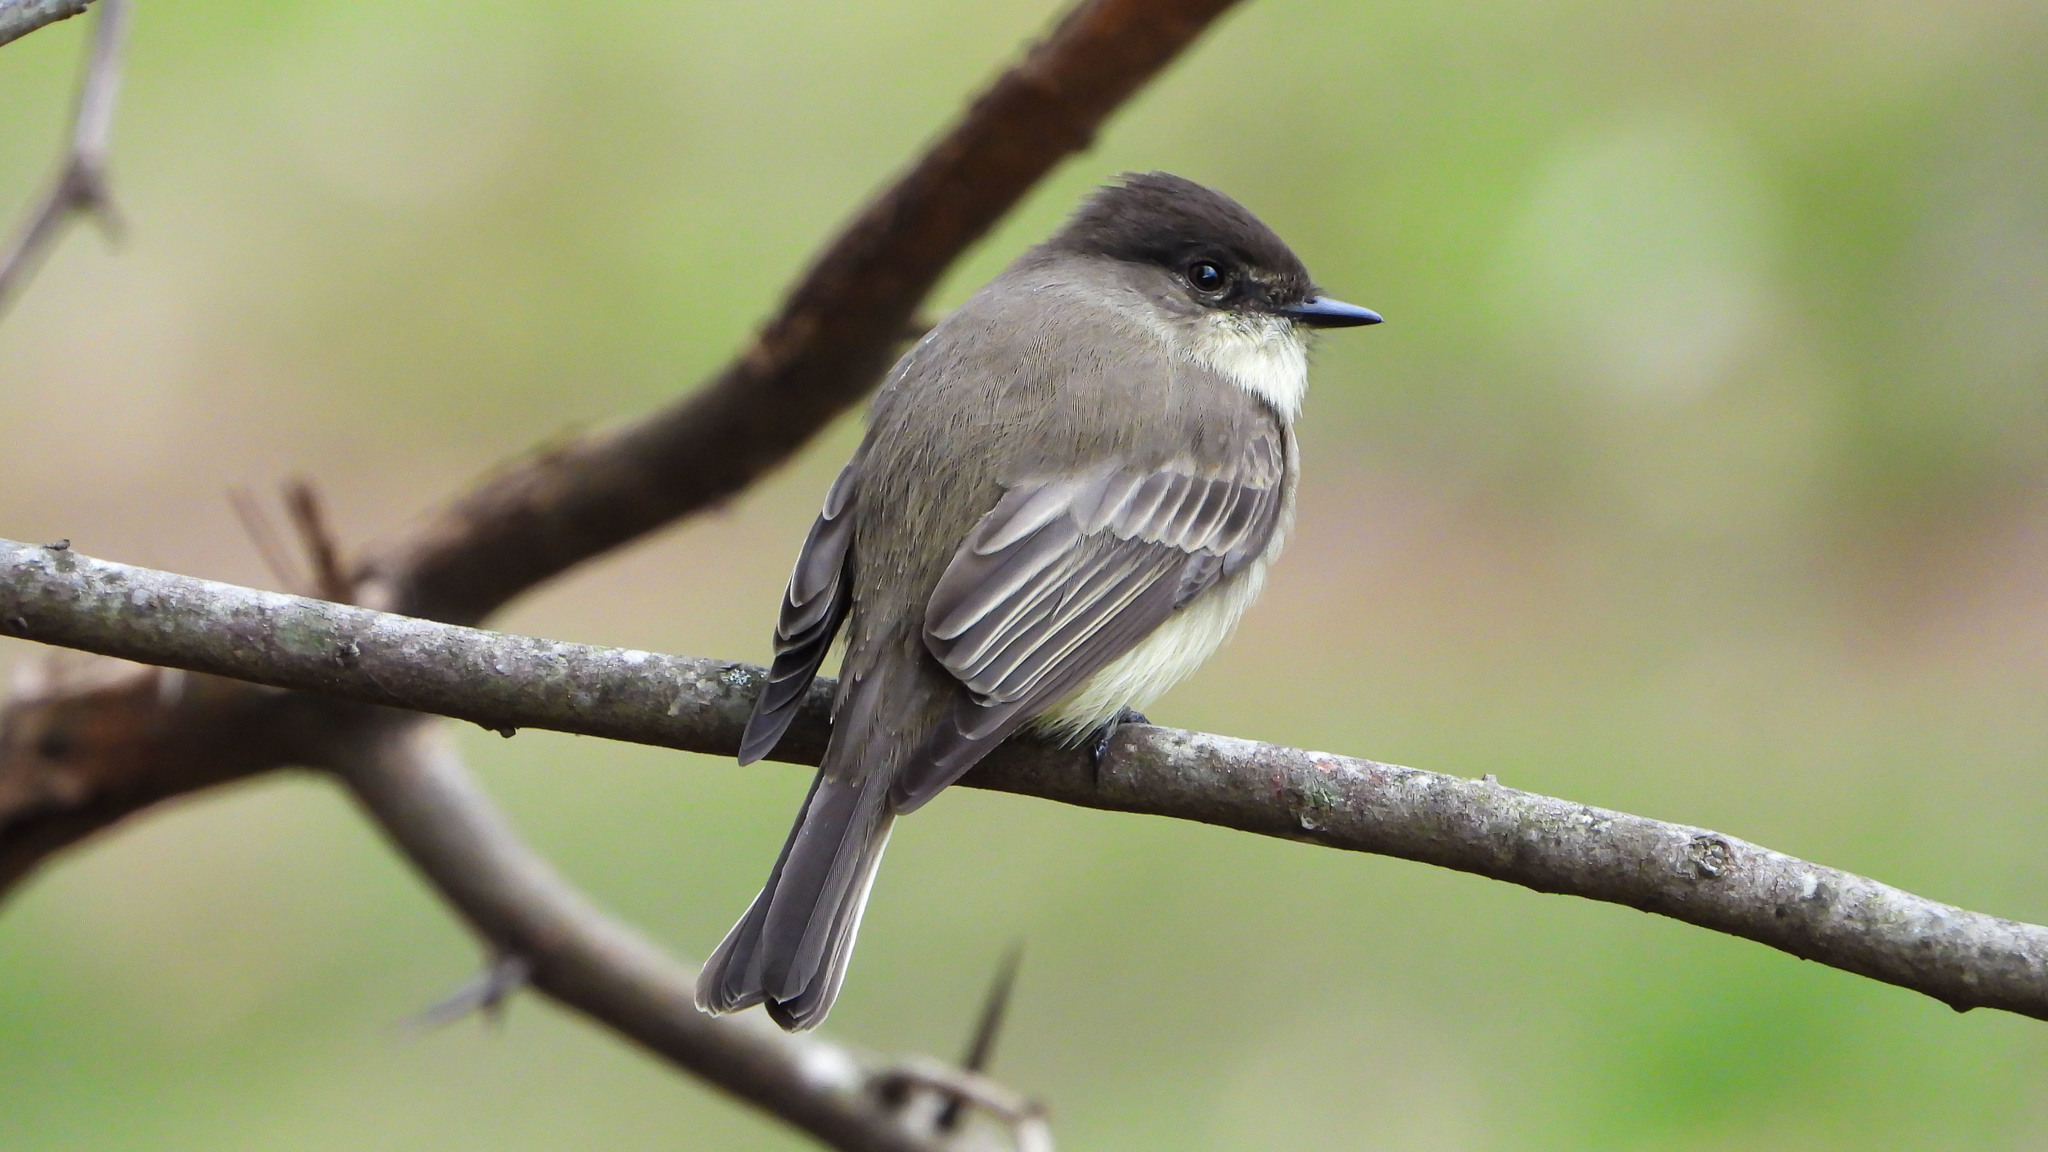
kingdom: Animalia
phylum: Chordata
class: Aves
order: Passeriformes
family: Tyrannidae
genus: Sayornis
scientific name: Sayornis phoebe
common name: Eastern phoebe
